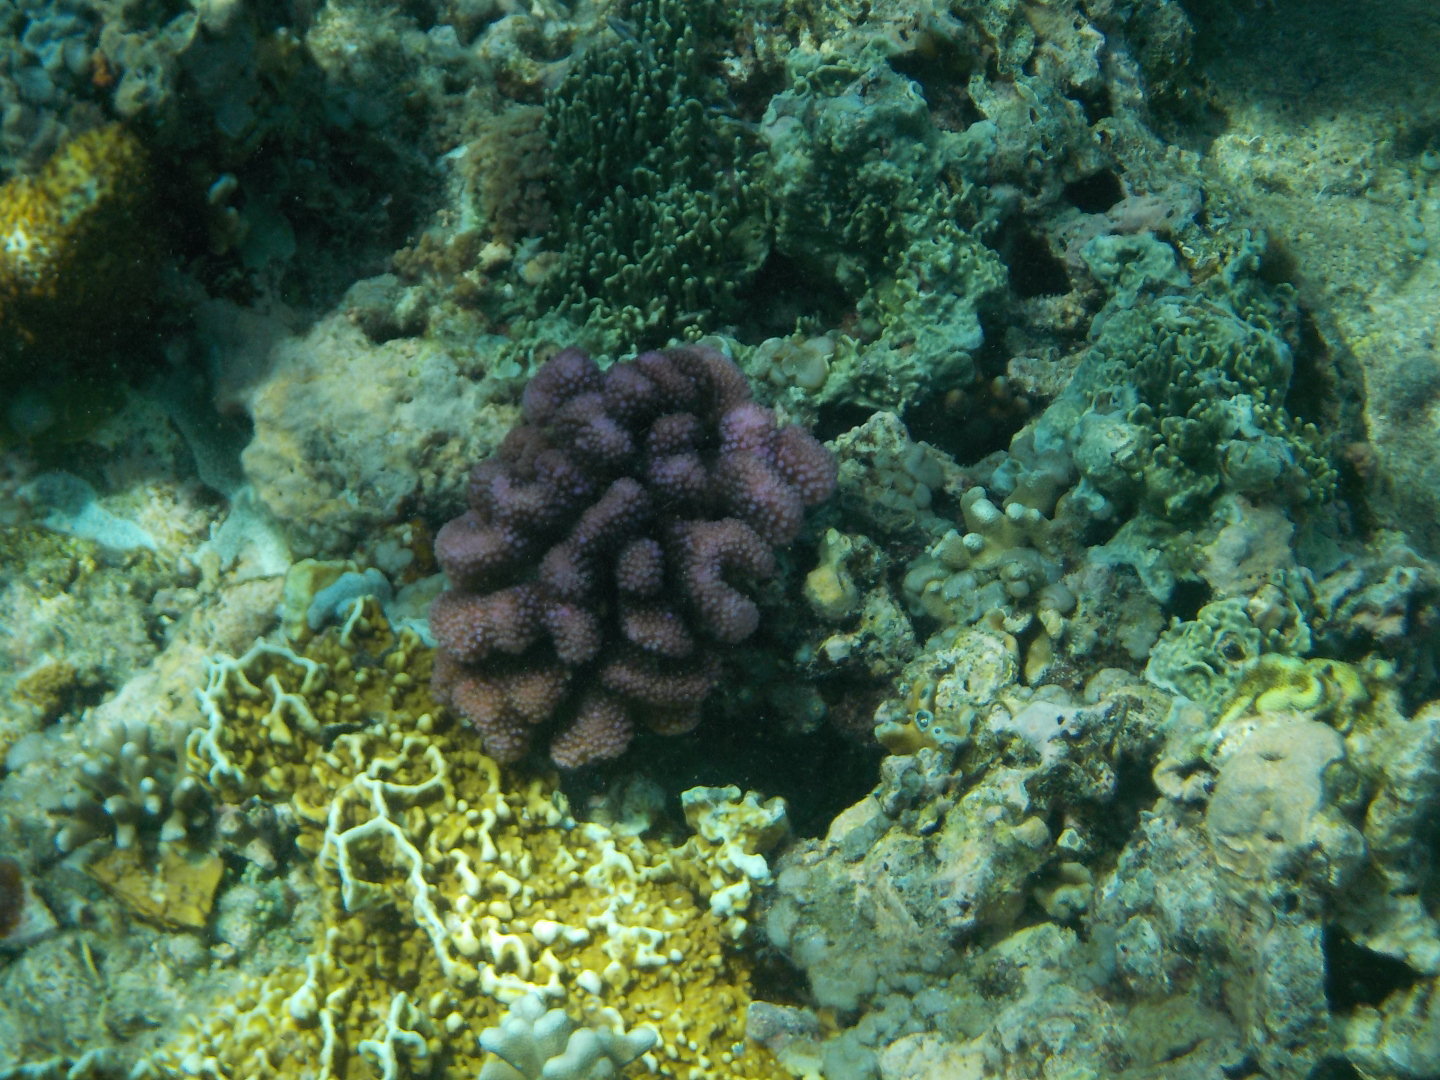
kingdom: Animalia
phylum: Cnidaria
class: Anthozoa
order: Scleractinia
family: Pocilloporidae
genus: Pocillopora
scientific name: Pocillopora verrucosa
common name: Cauliflower coral
